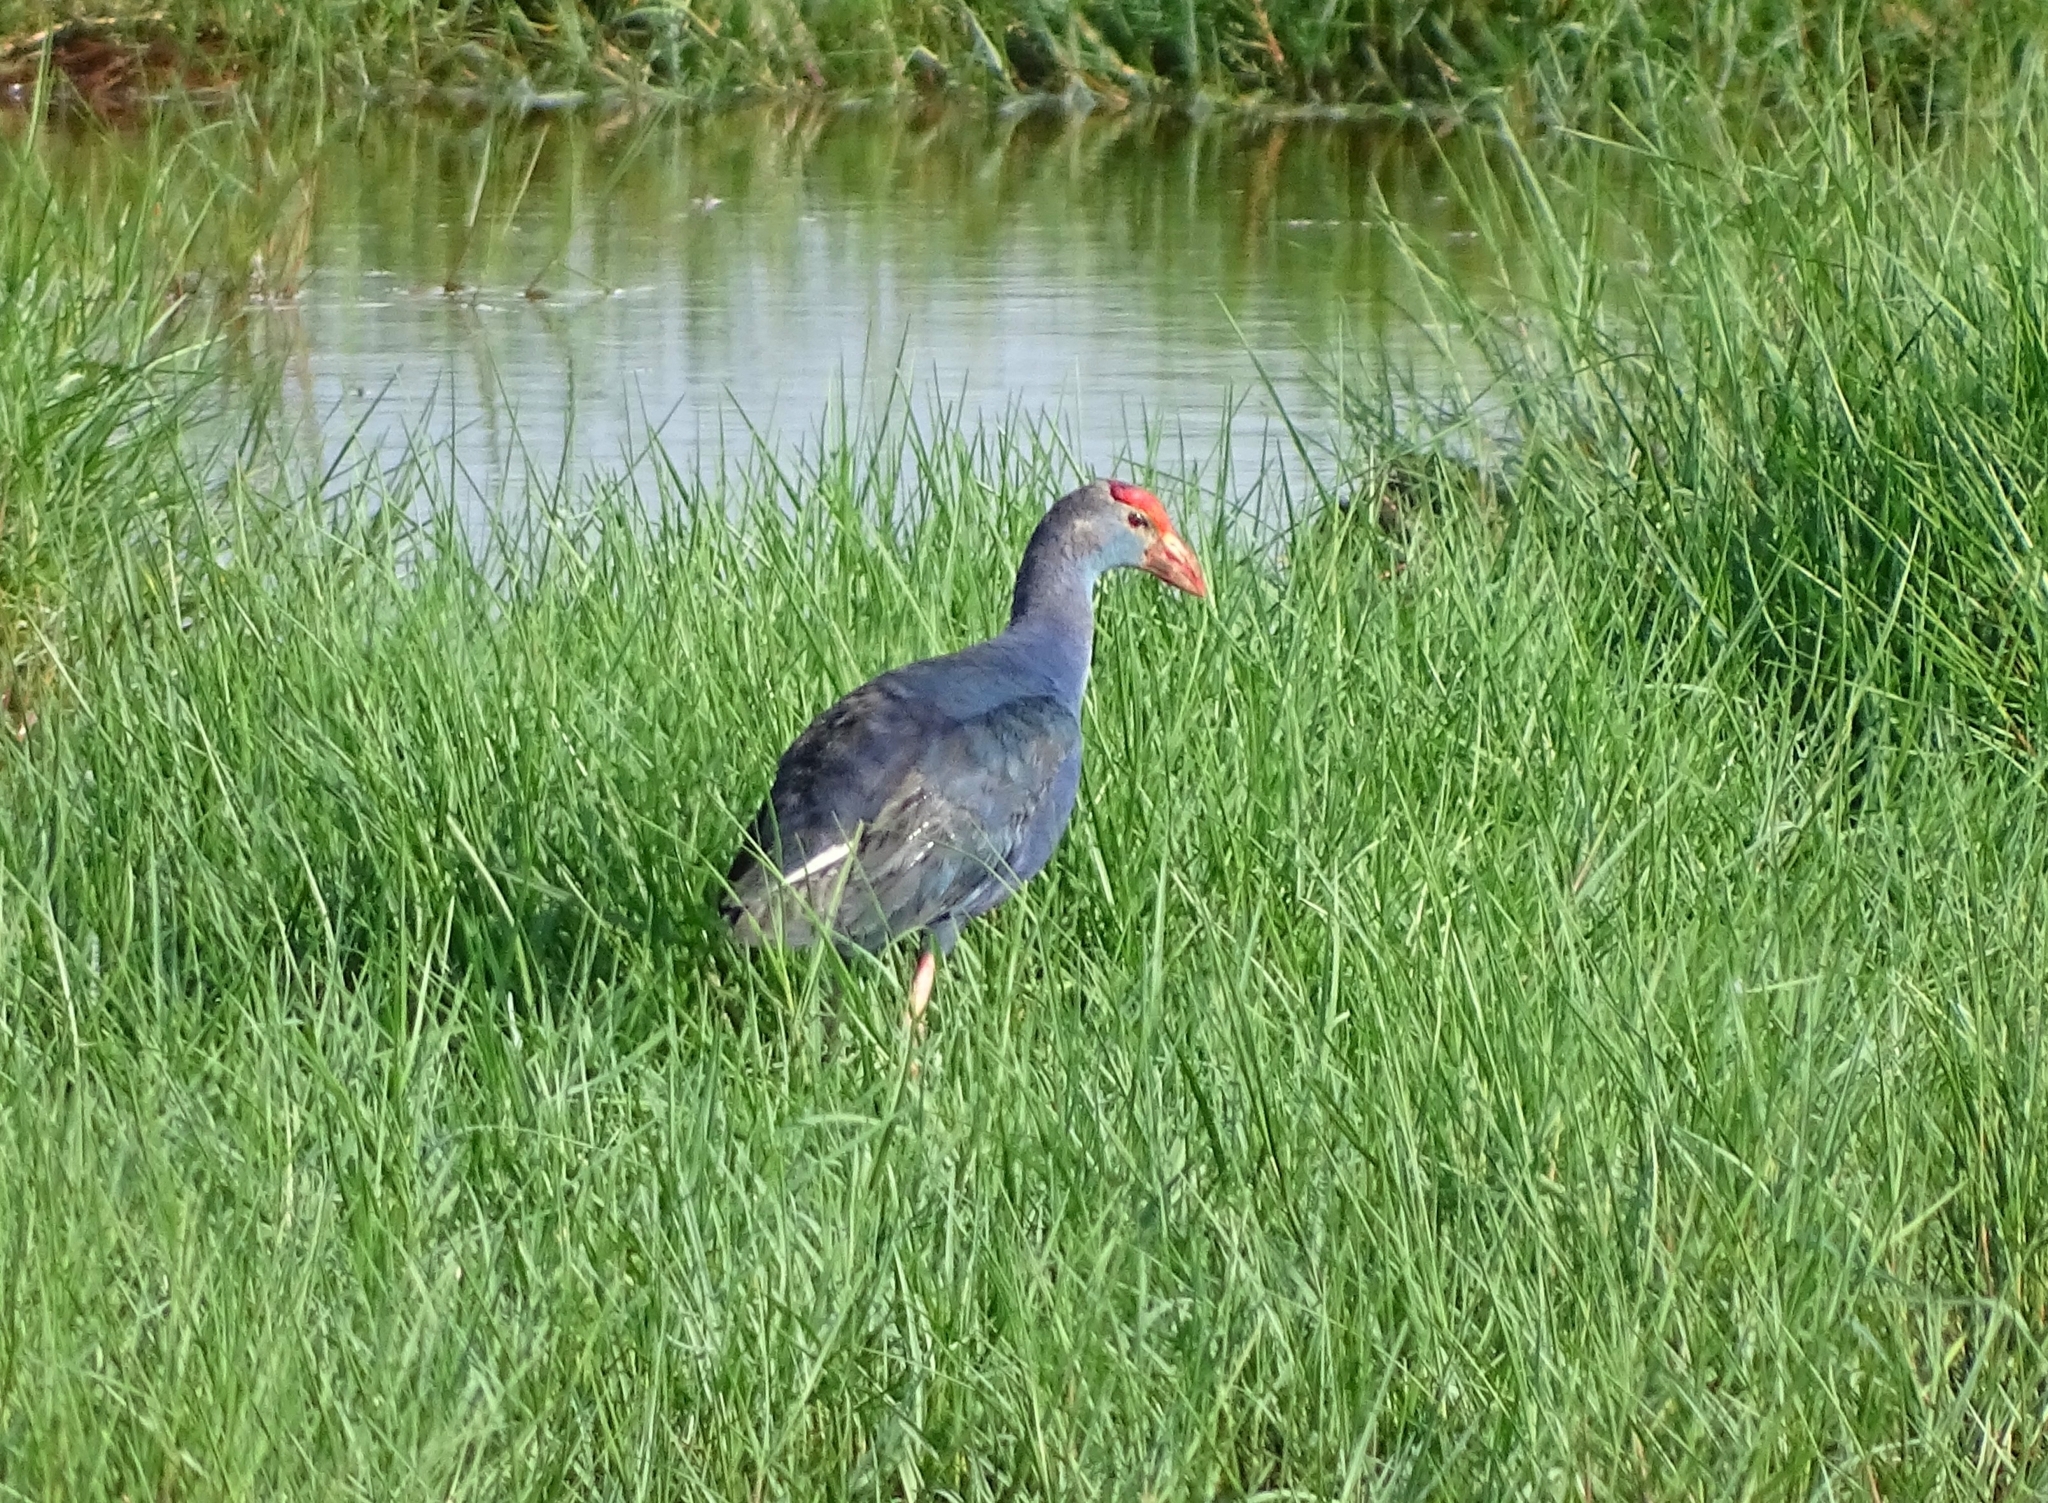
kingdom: Animalia
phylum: Chordata
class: Aves
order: Gruiformes
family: Rallidae
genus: Porphyrio
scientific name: Porphyrio porphyrio
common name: Purple swamphen
